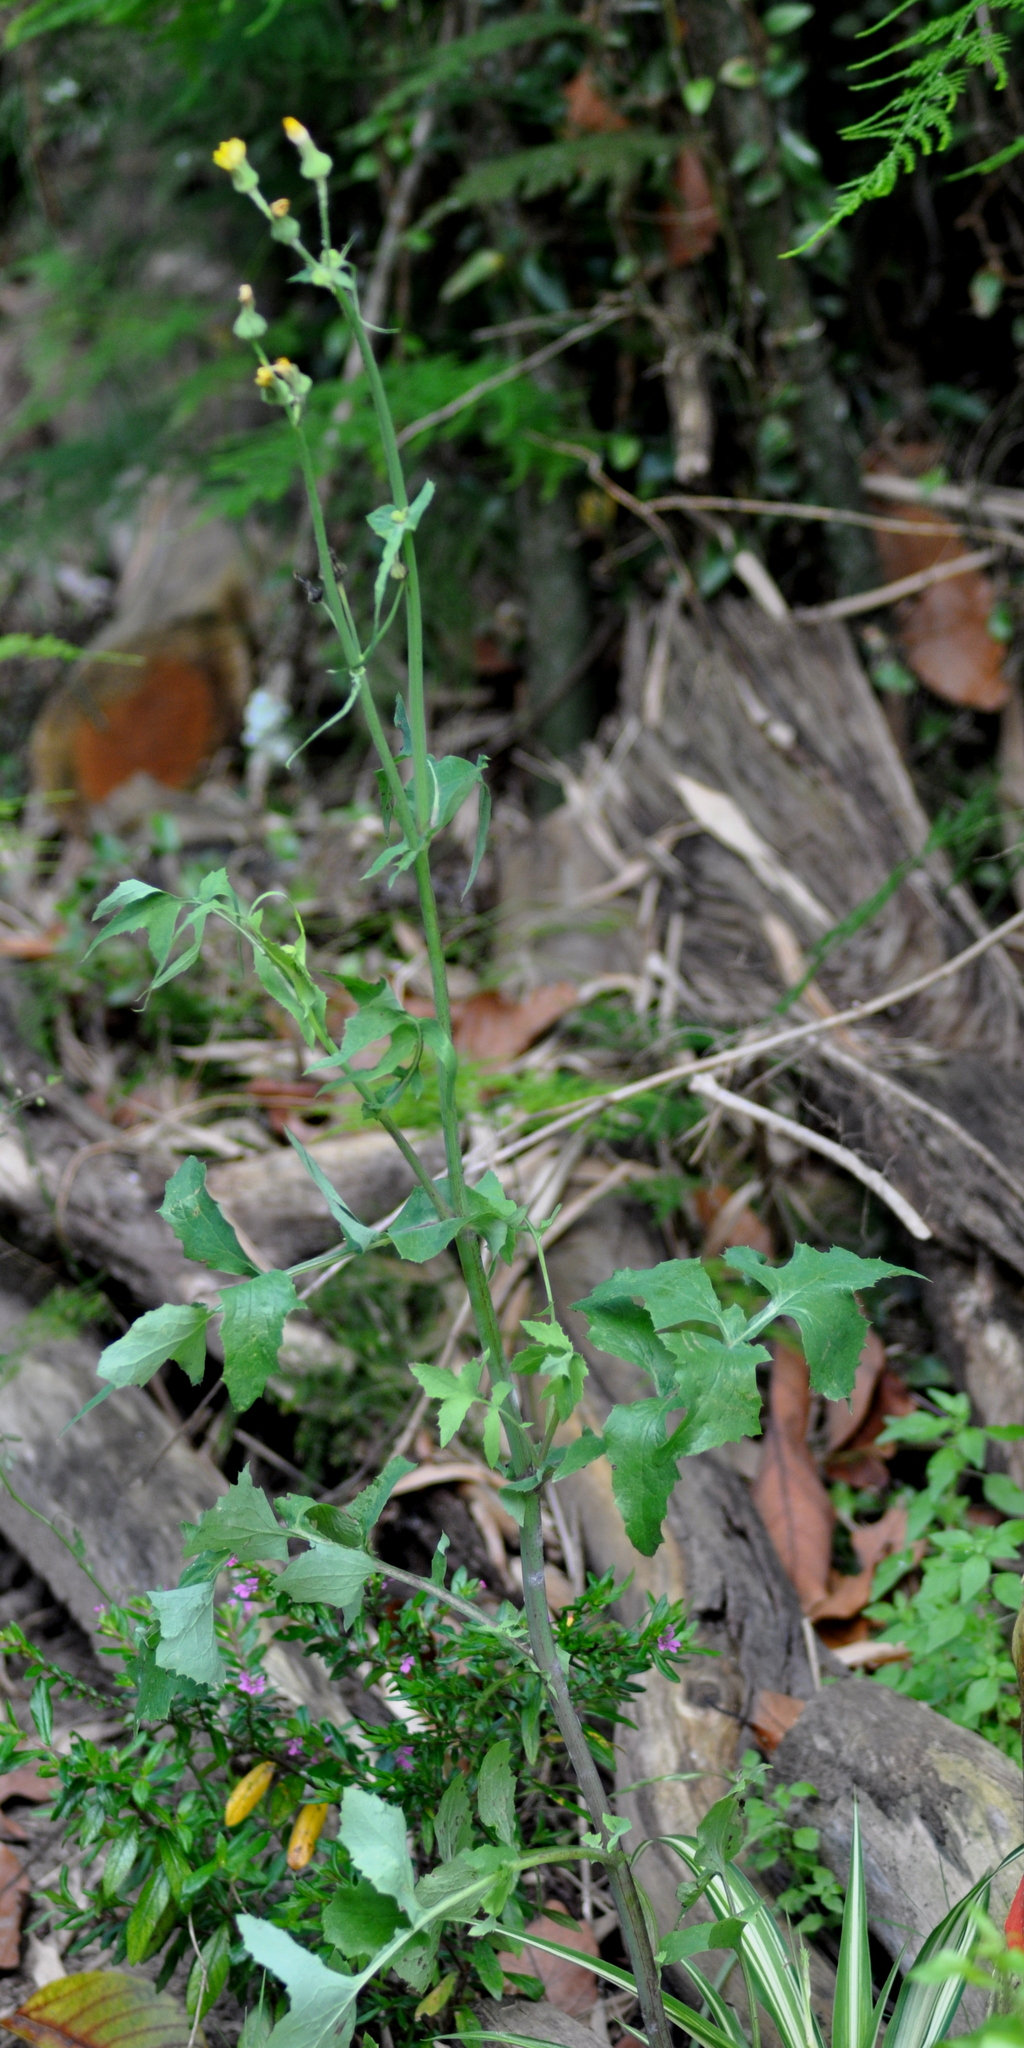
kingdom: Plantae
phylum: Tracheophyta
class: Magnoliopsida
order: Asterales
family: Asteraceae
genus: Sonchus
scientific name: Sonchus oleraceus
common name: Common sowthistle
